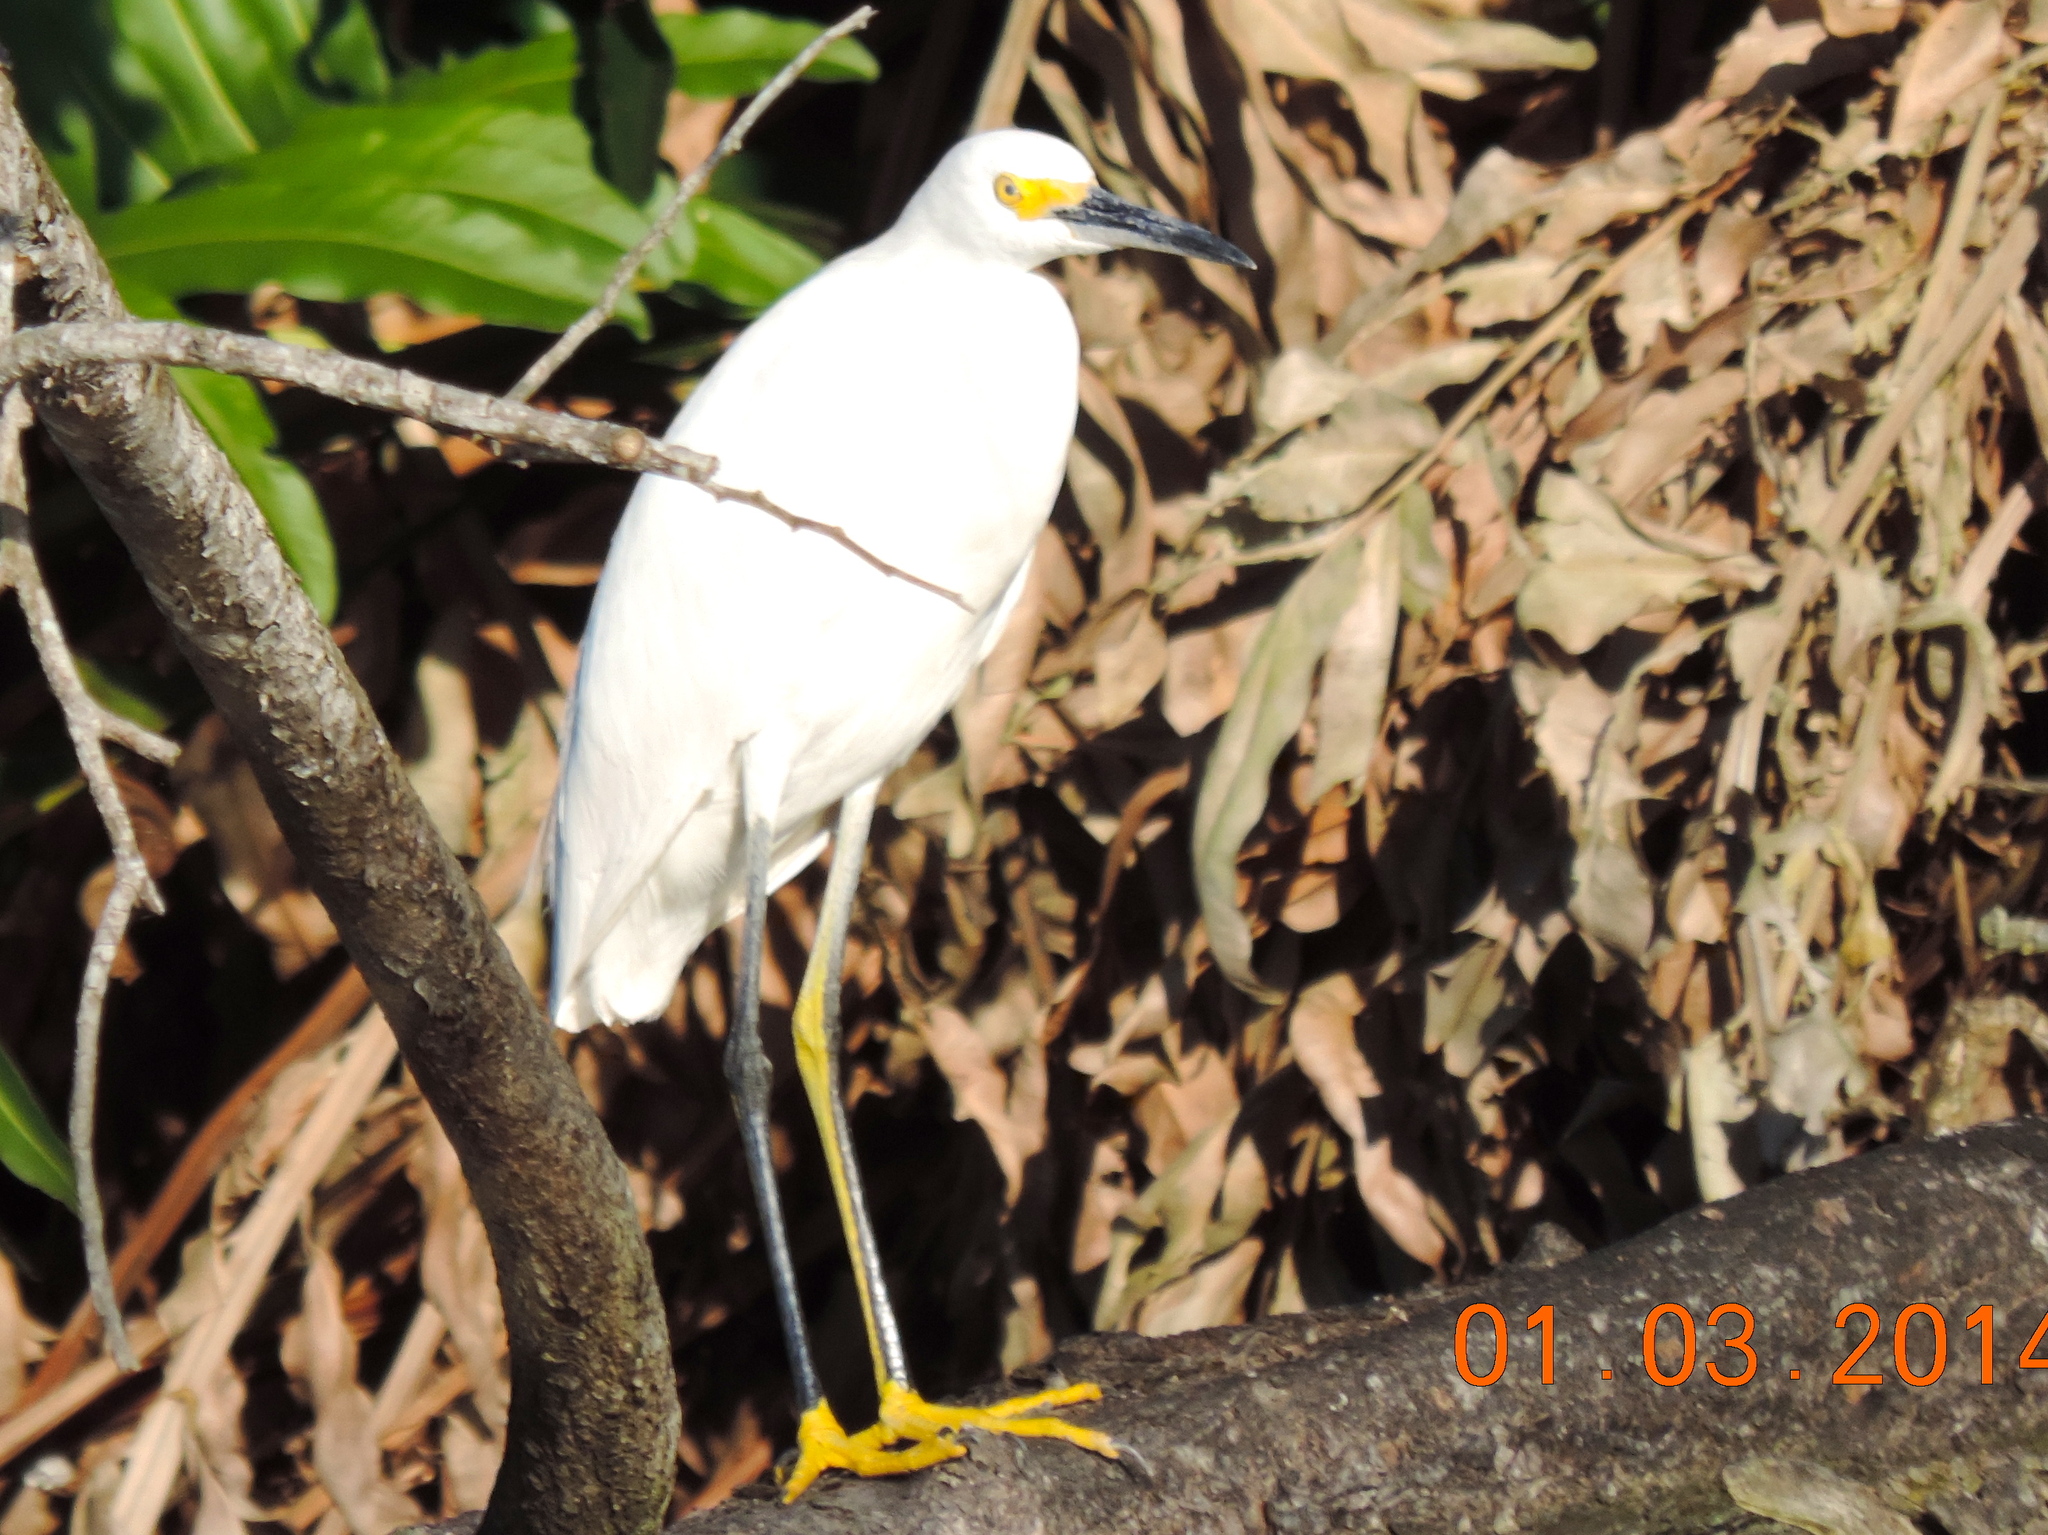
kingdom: Animalia
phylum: Chordata
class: Aves
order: Pelecaniformes
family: Ardeidae
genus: Egretta
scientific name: Egretta thula
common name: Snowy egret
